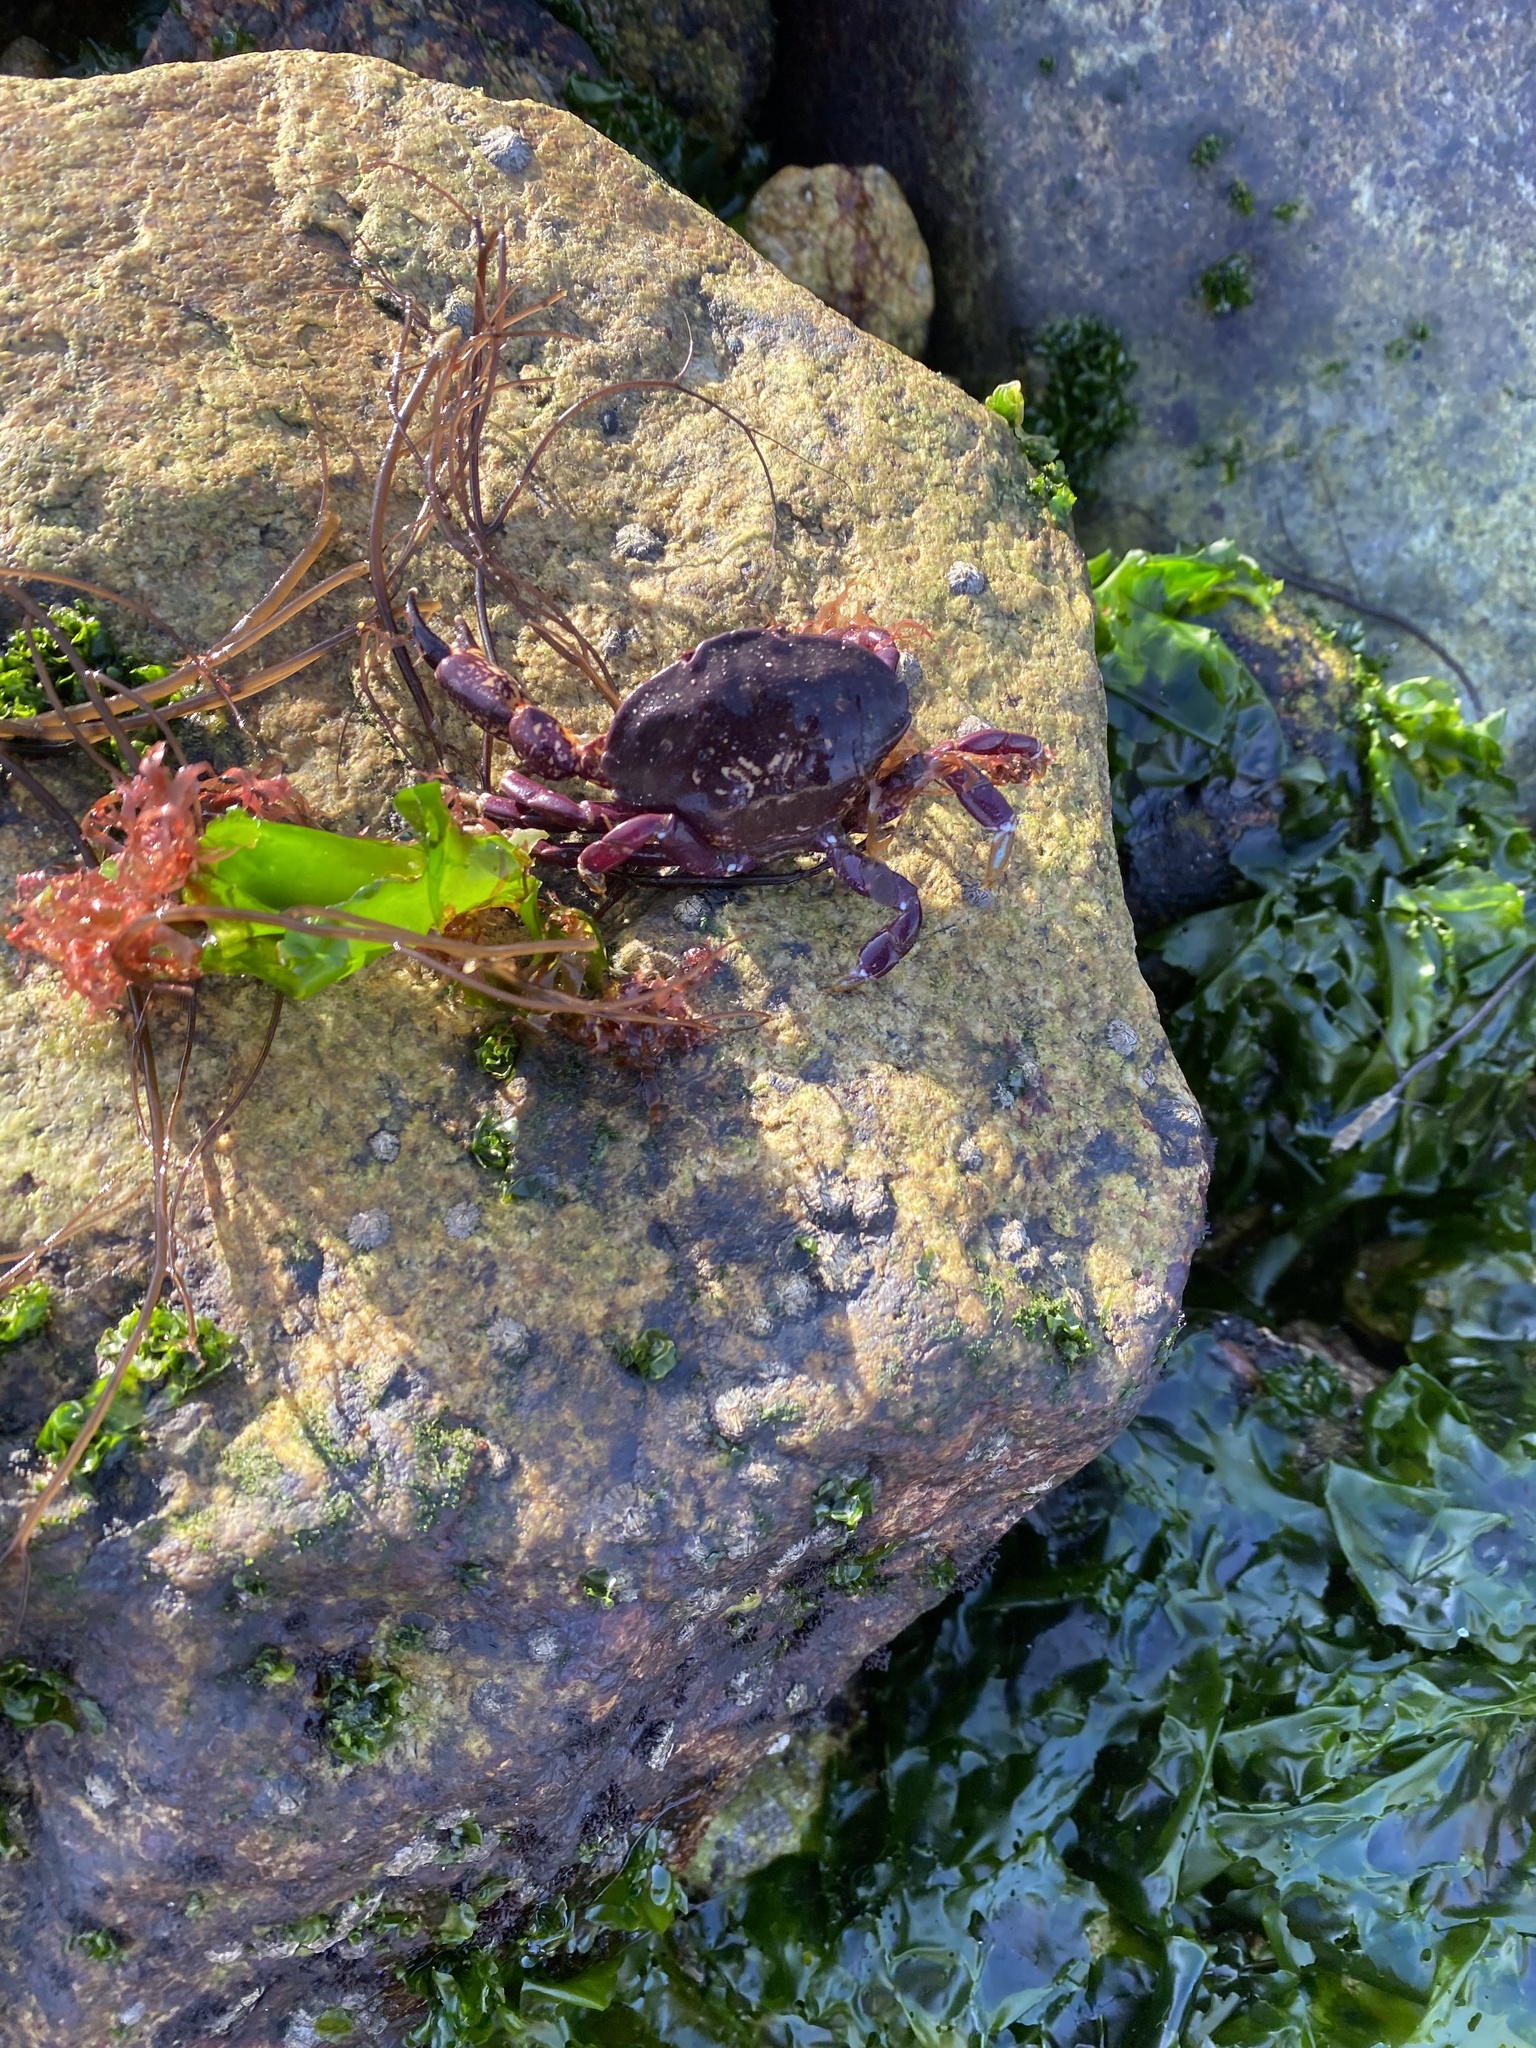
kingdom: Animalia
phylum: Arthropoda
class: Malacostraca
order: Decapoda
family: Platyxanthidae
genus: Homalaspis
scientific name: Homalaspis plana
